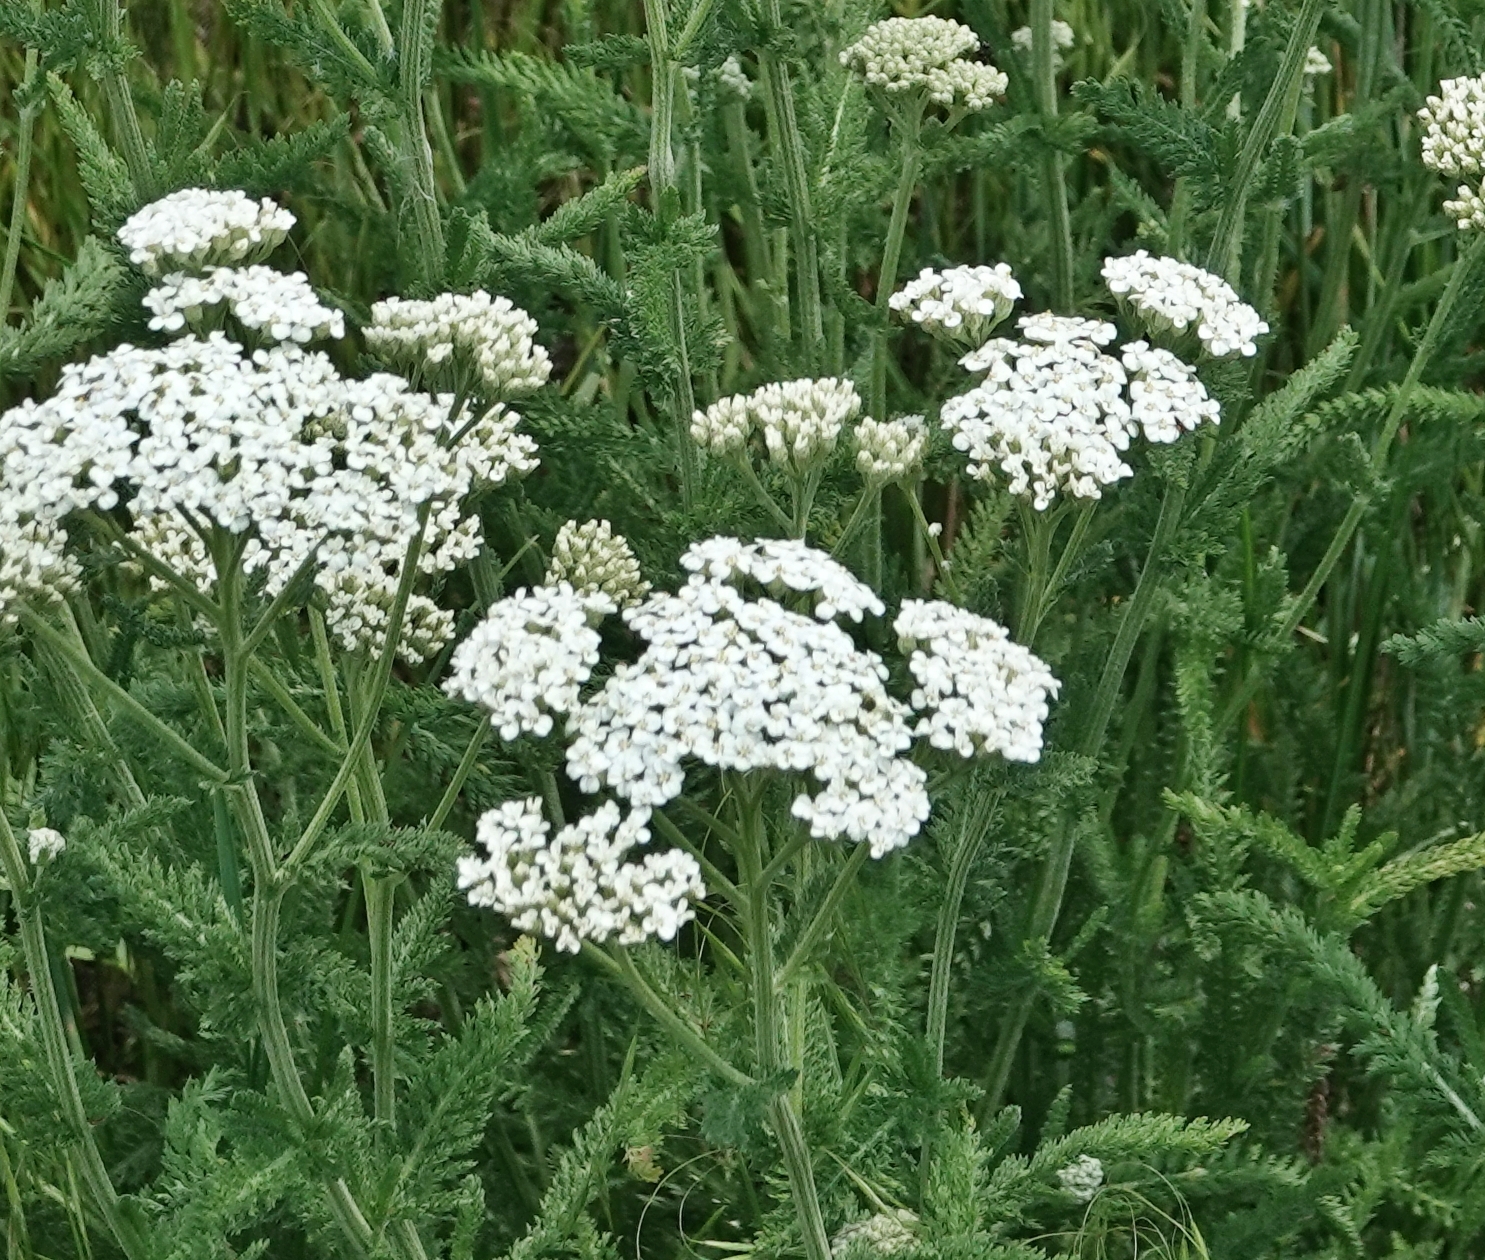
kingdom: Plantae
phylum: Tracheophyta
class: Magnoliopsida
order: Asterales
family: Asteraceae
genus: Achillea
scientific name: Achillea millefolium
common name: Yarrow
